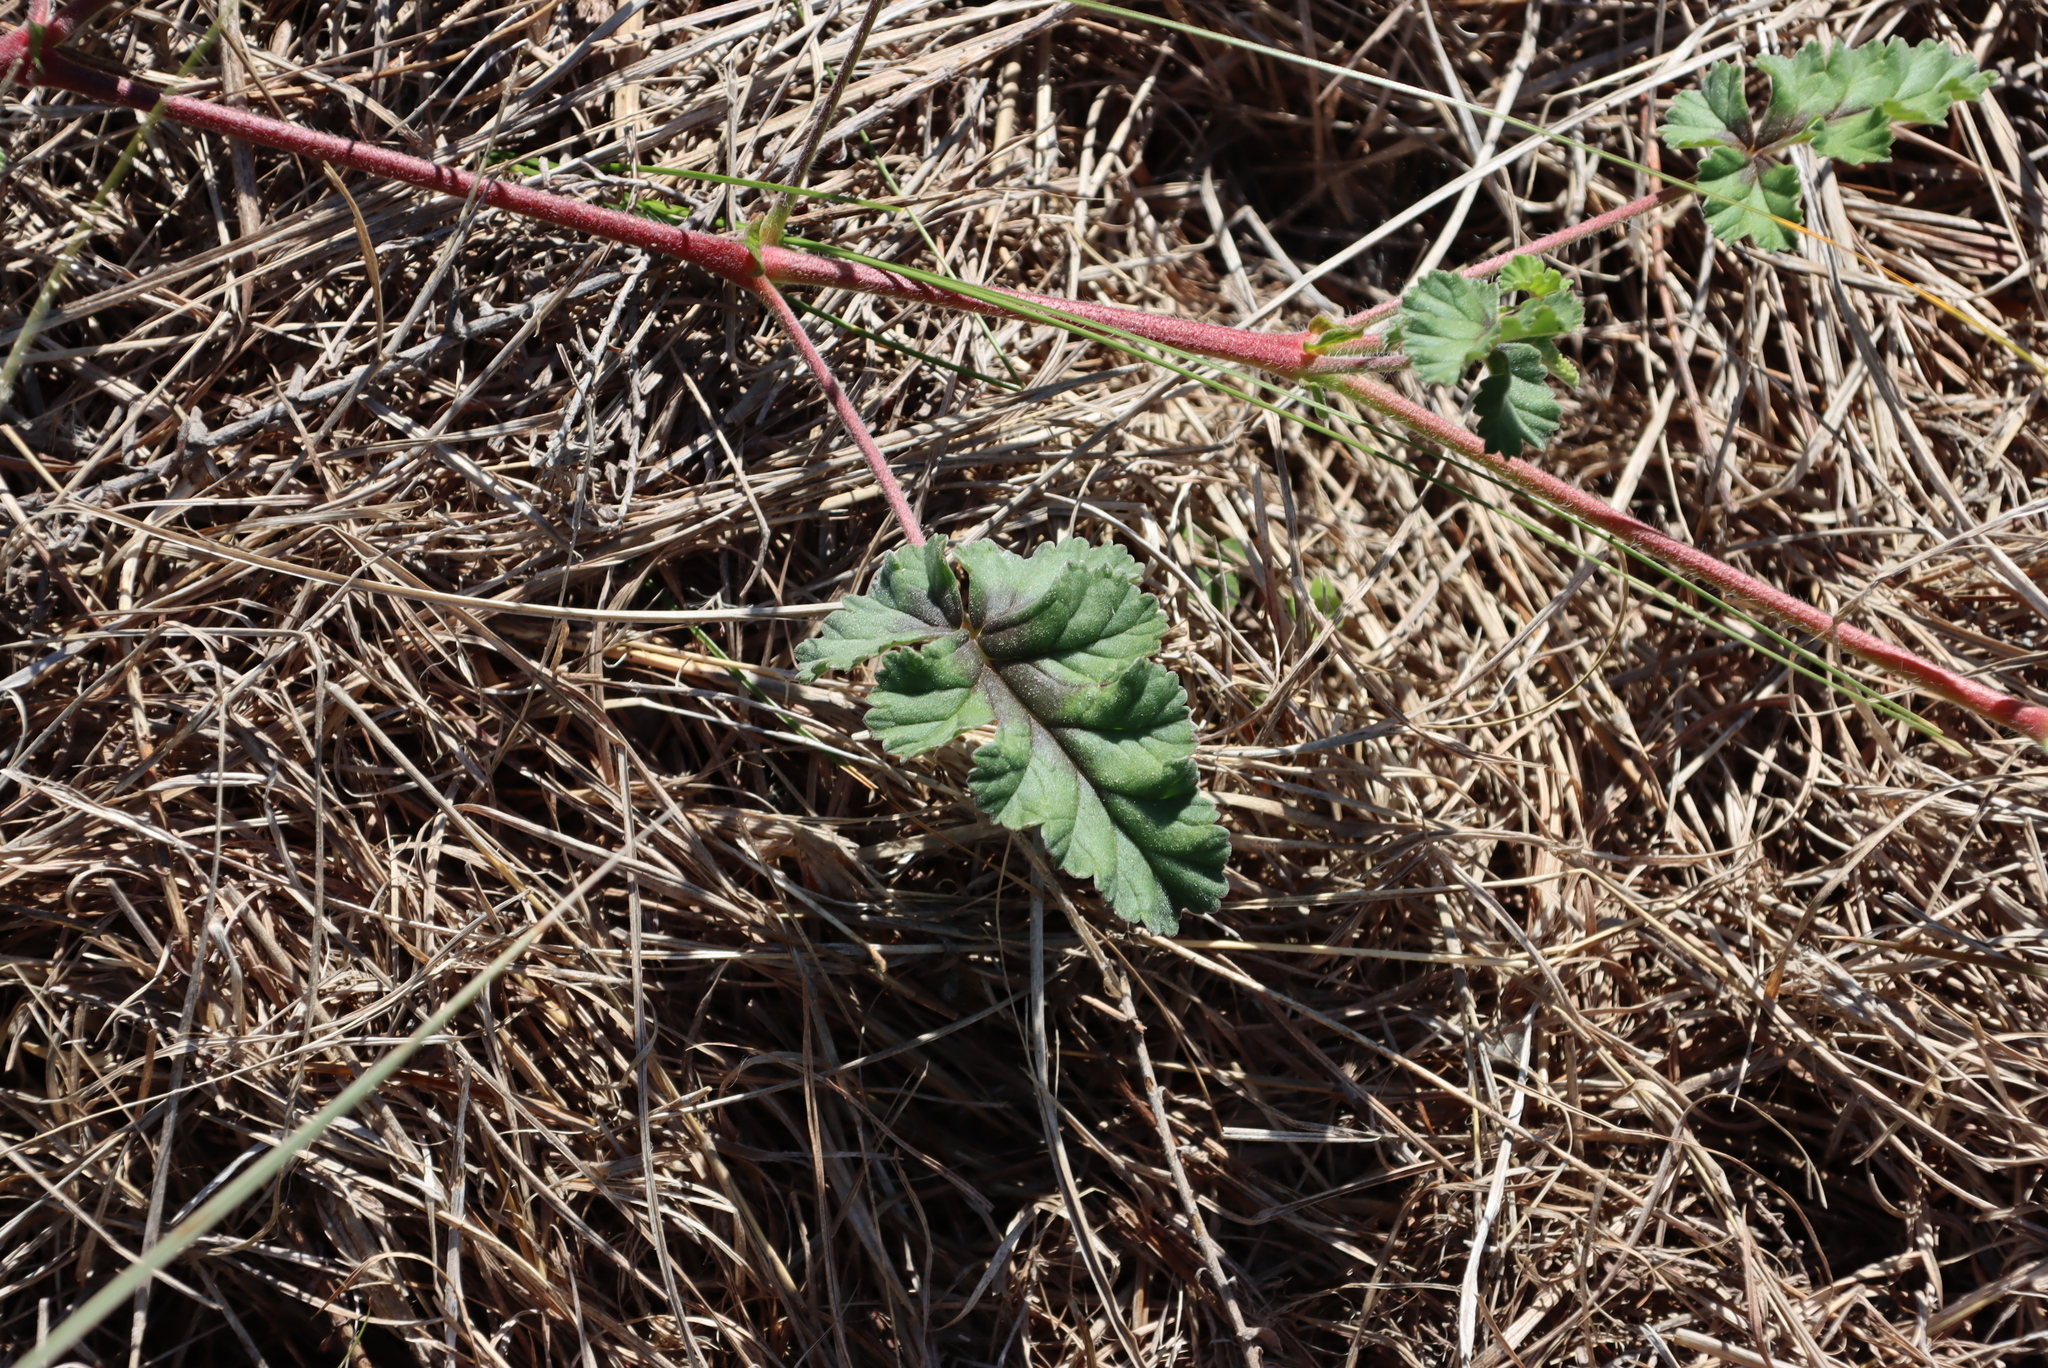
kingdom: Plantae
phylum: Tracheophyta
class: Magnoliopsida
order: Geraniales
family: Geraniaceae
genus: Pelargonium
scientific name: Pelargonium candicans
